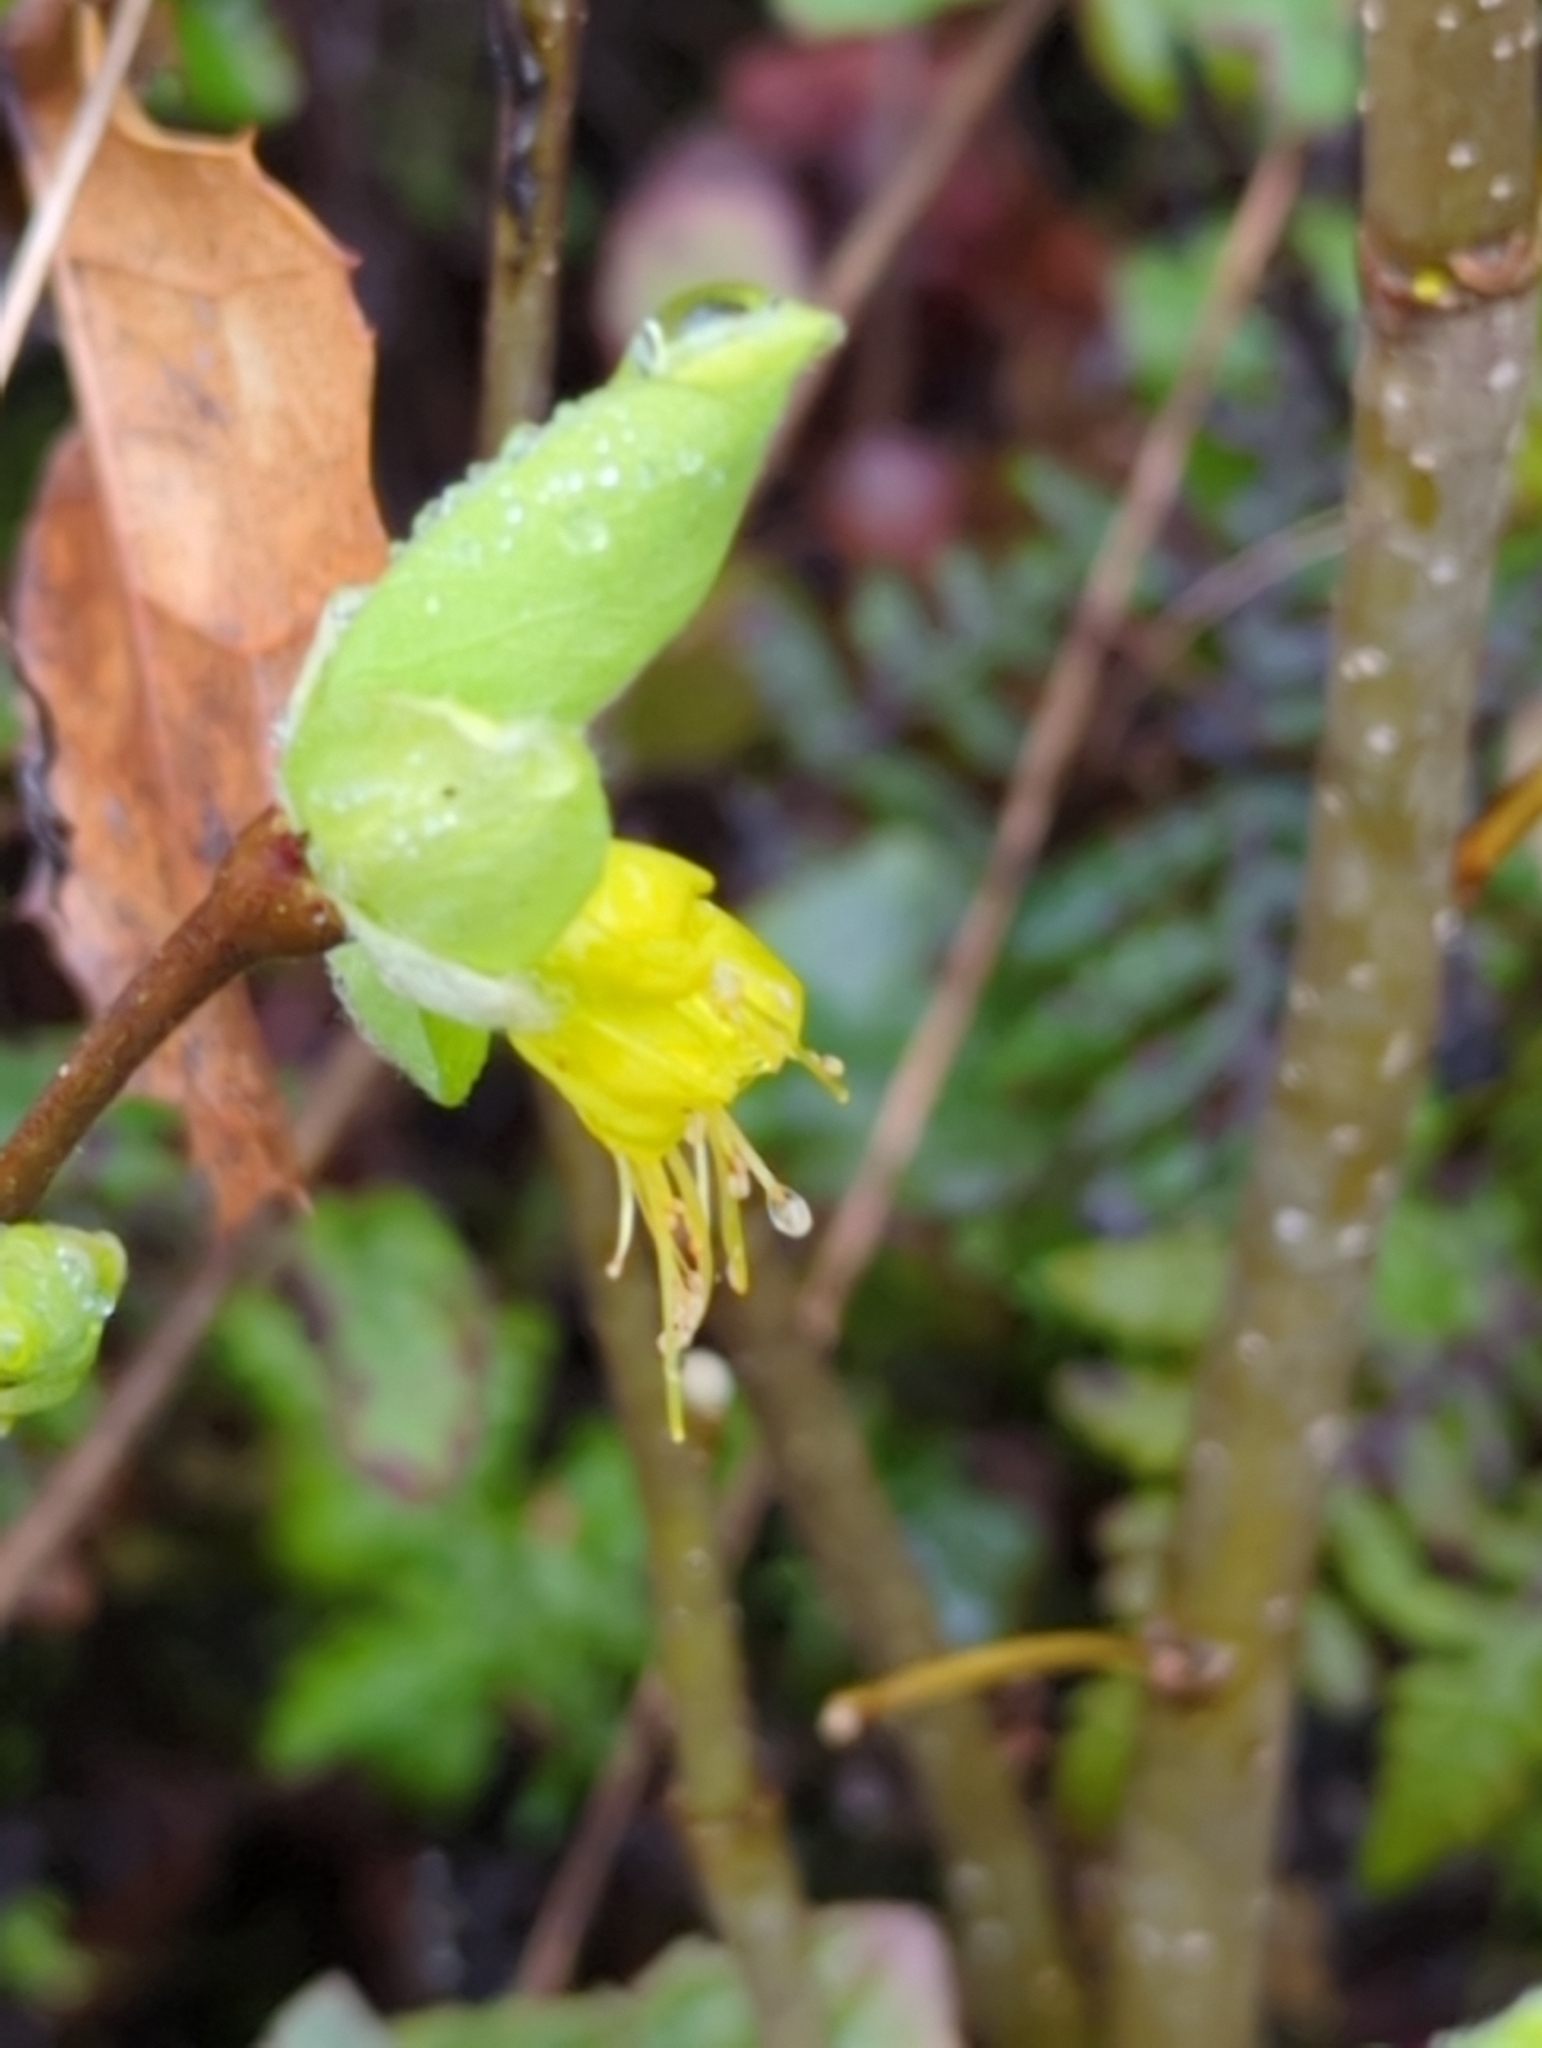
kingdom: Plantae
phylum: Tracheophyta
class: Magnoliopsida
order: Malvales
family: Thymelaeaceae
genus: Dirca
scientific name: Dirca occidentalis
